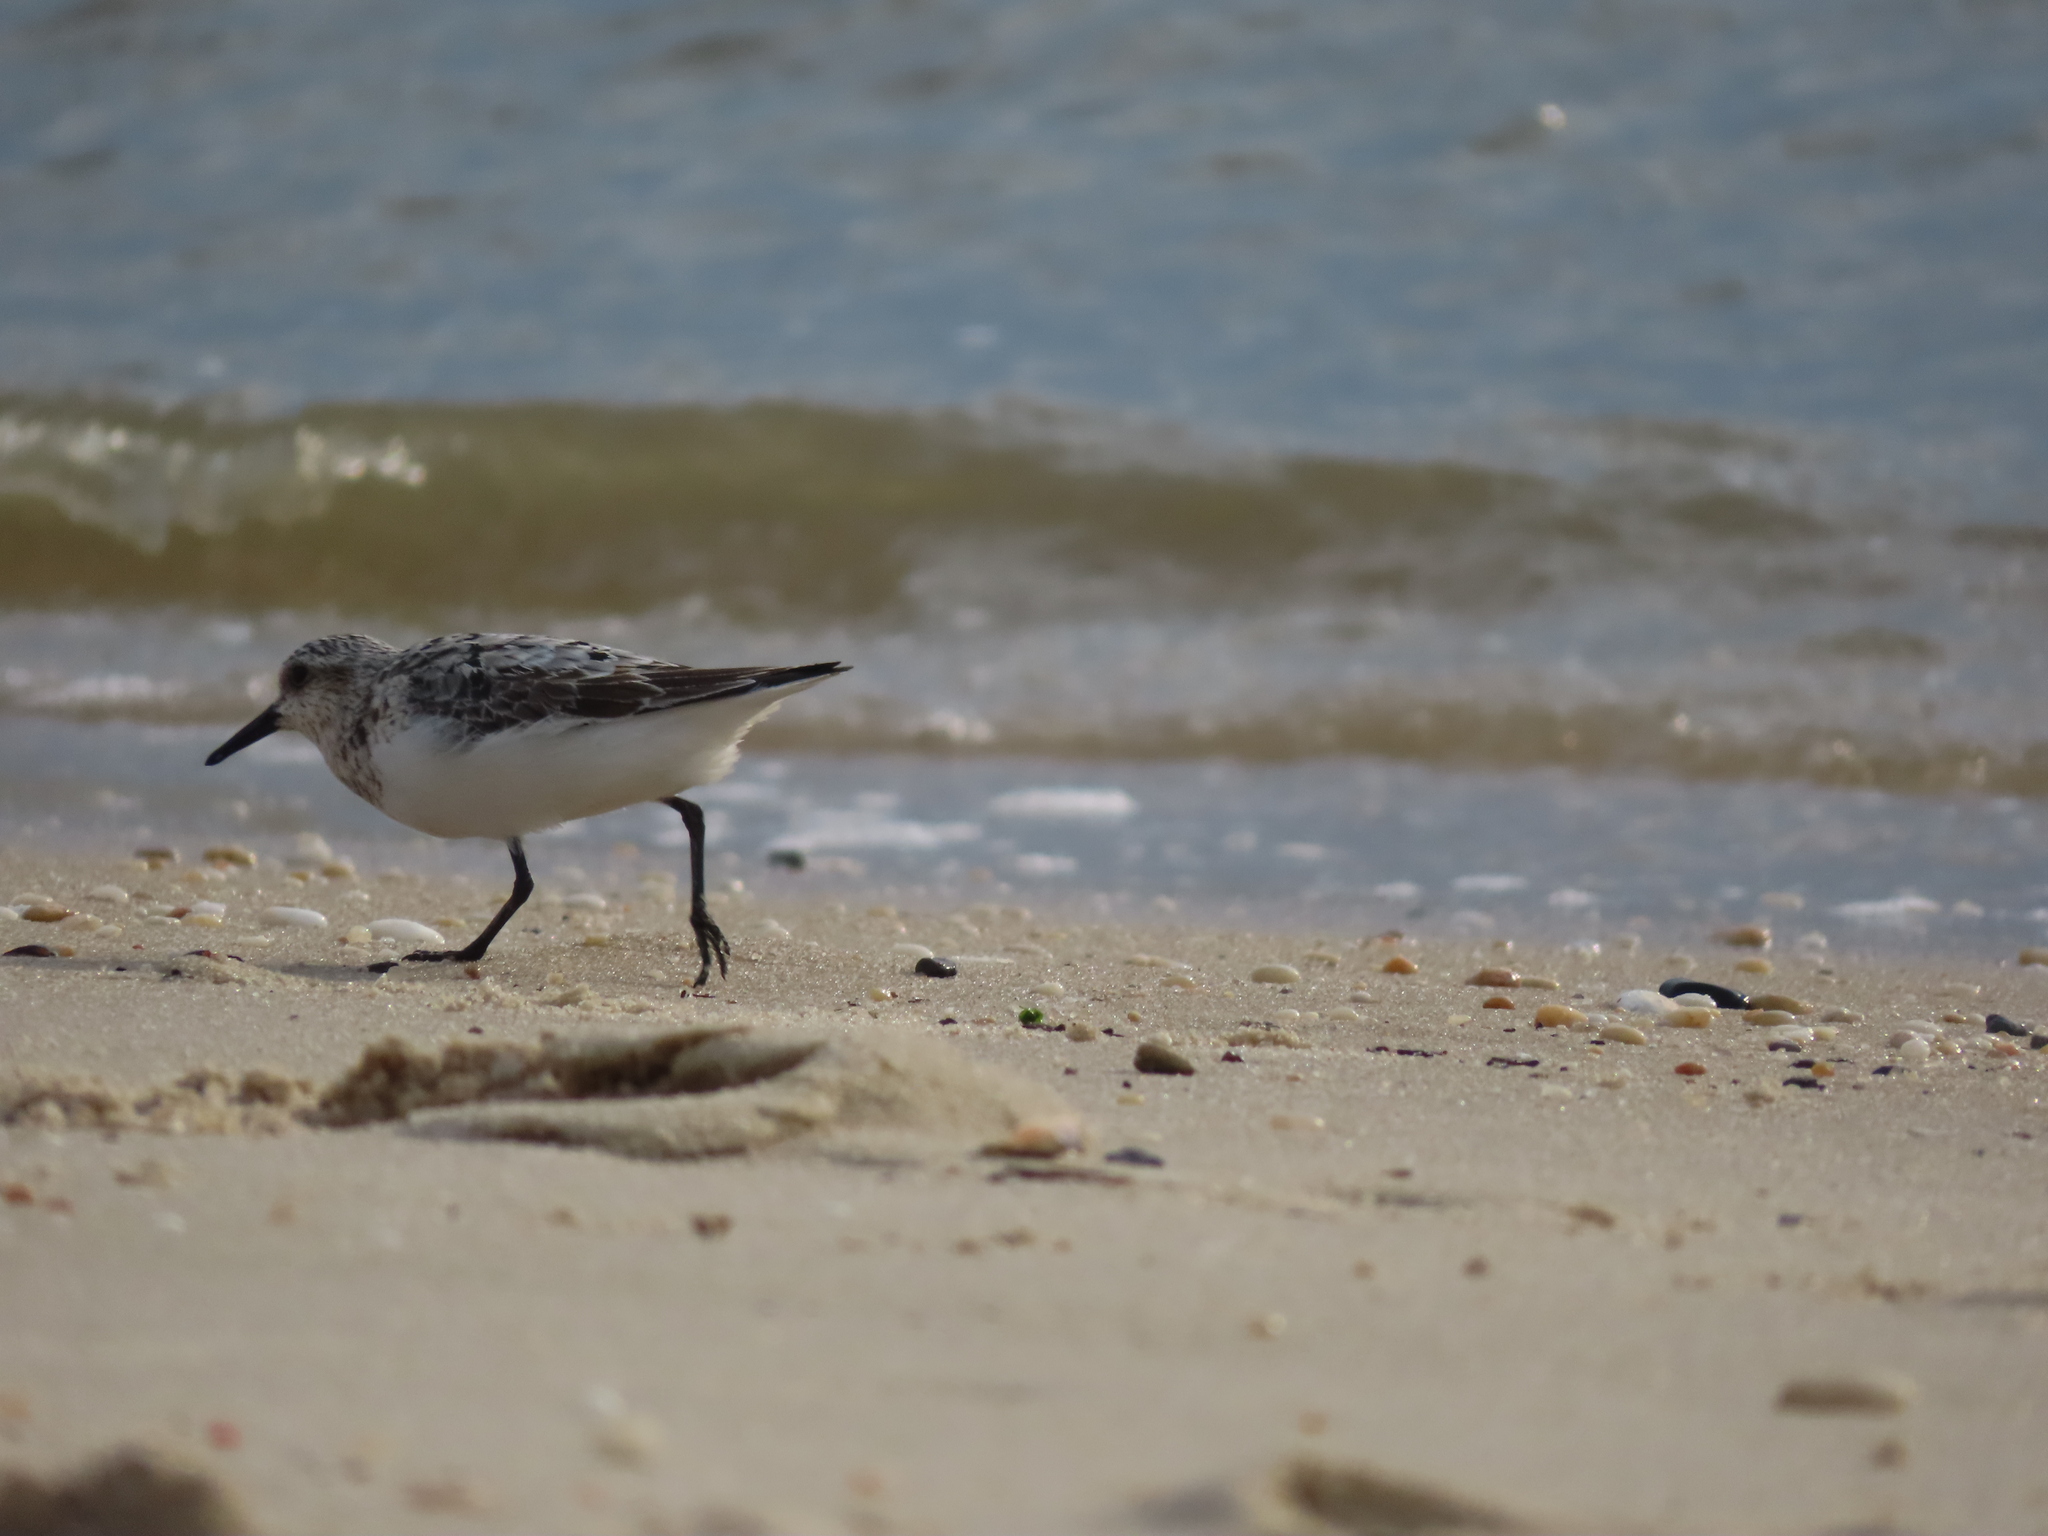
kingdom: Animalia
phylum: Chordata
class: Aves
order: Charadriiformes
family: Scolopacidae
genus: Calidris
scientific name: Calidris alba
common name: Sanderling
